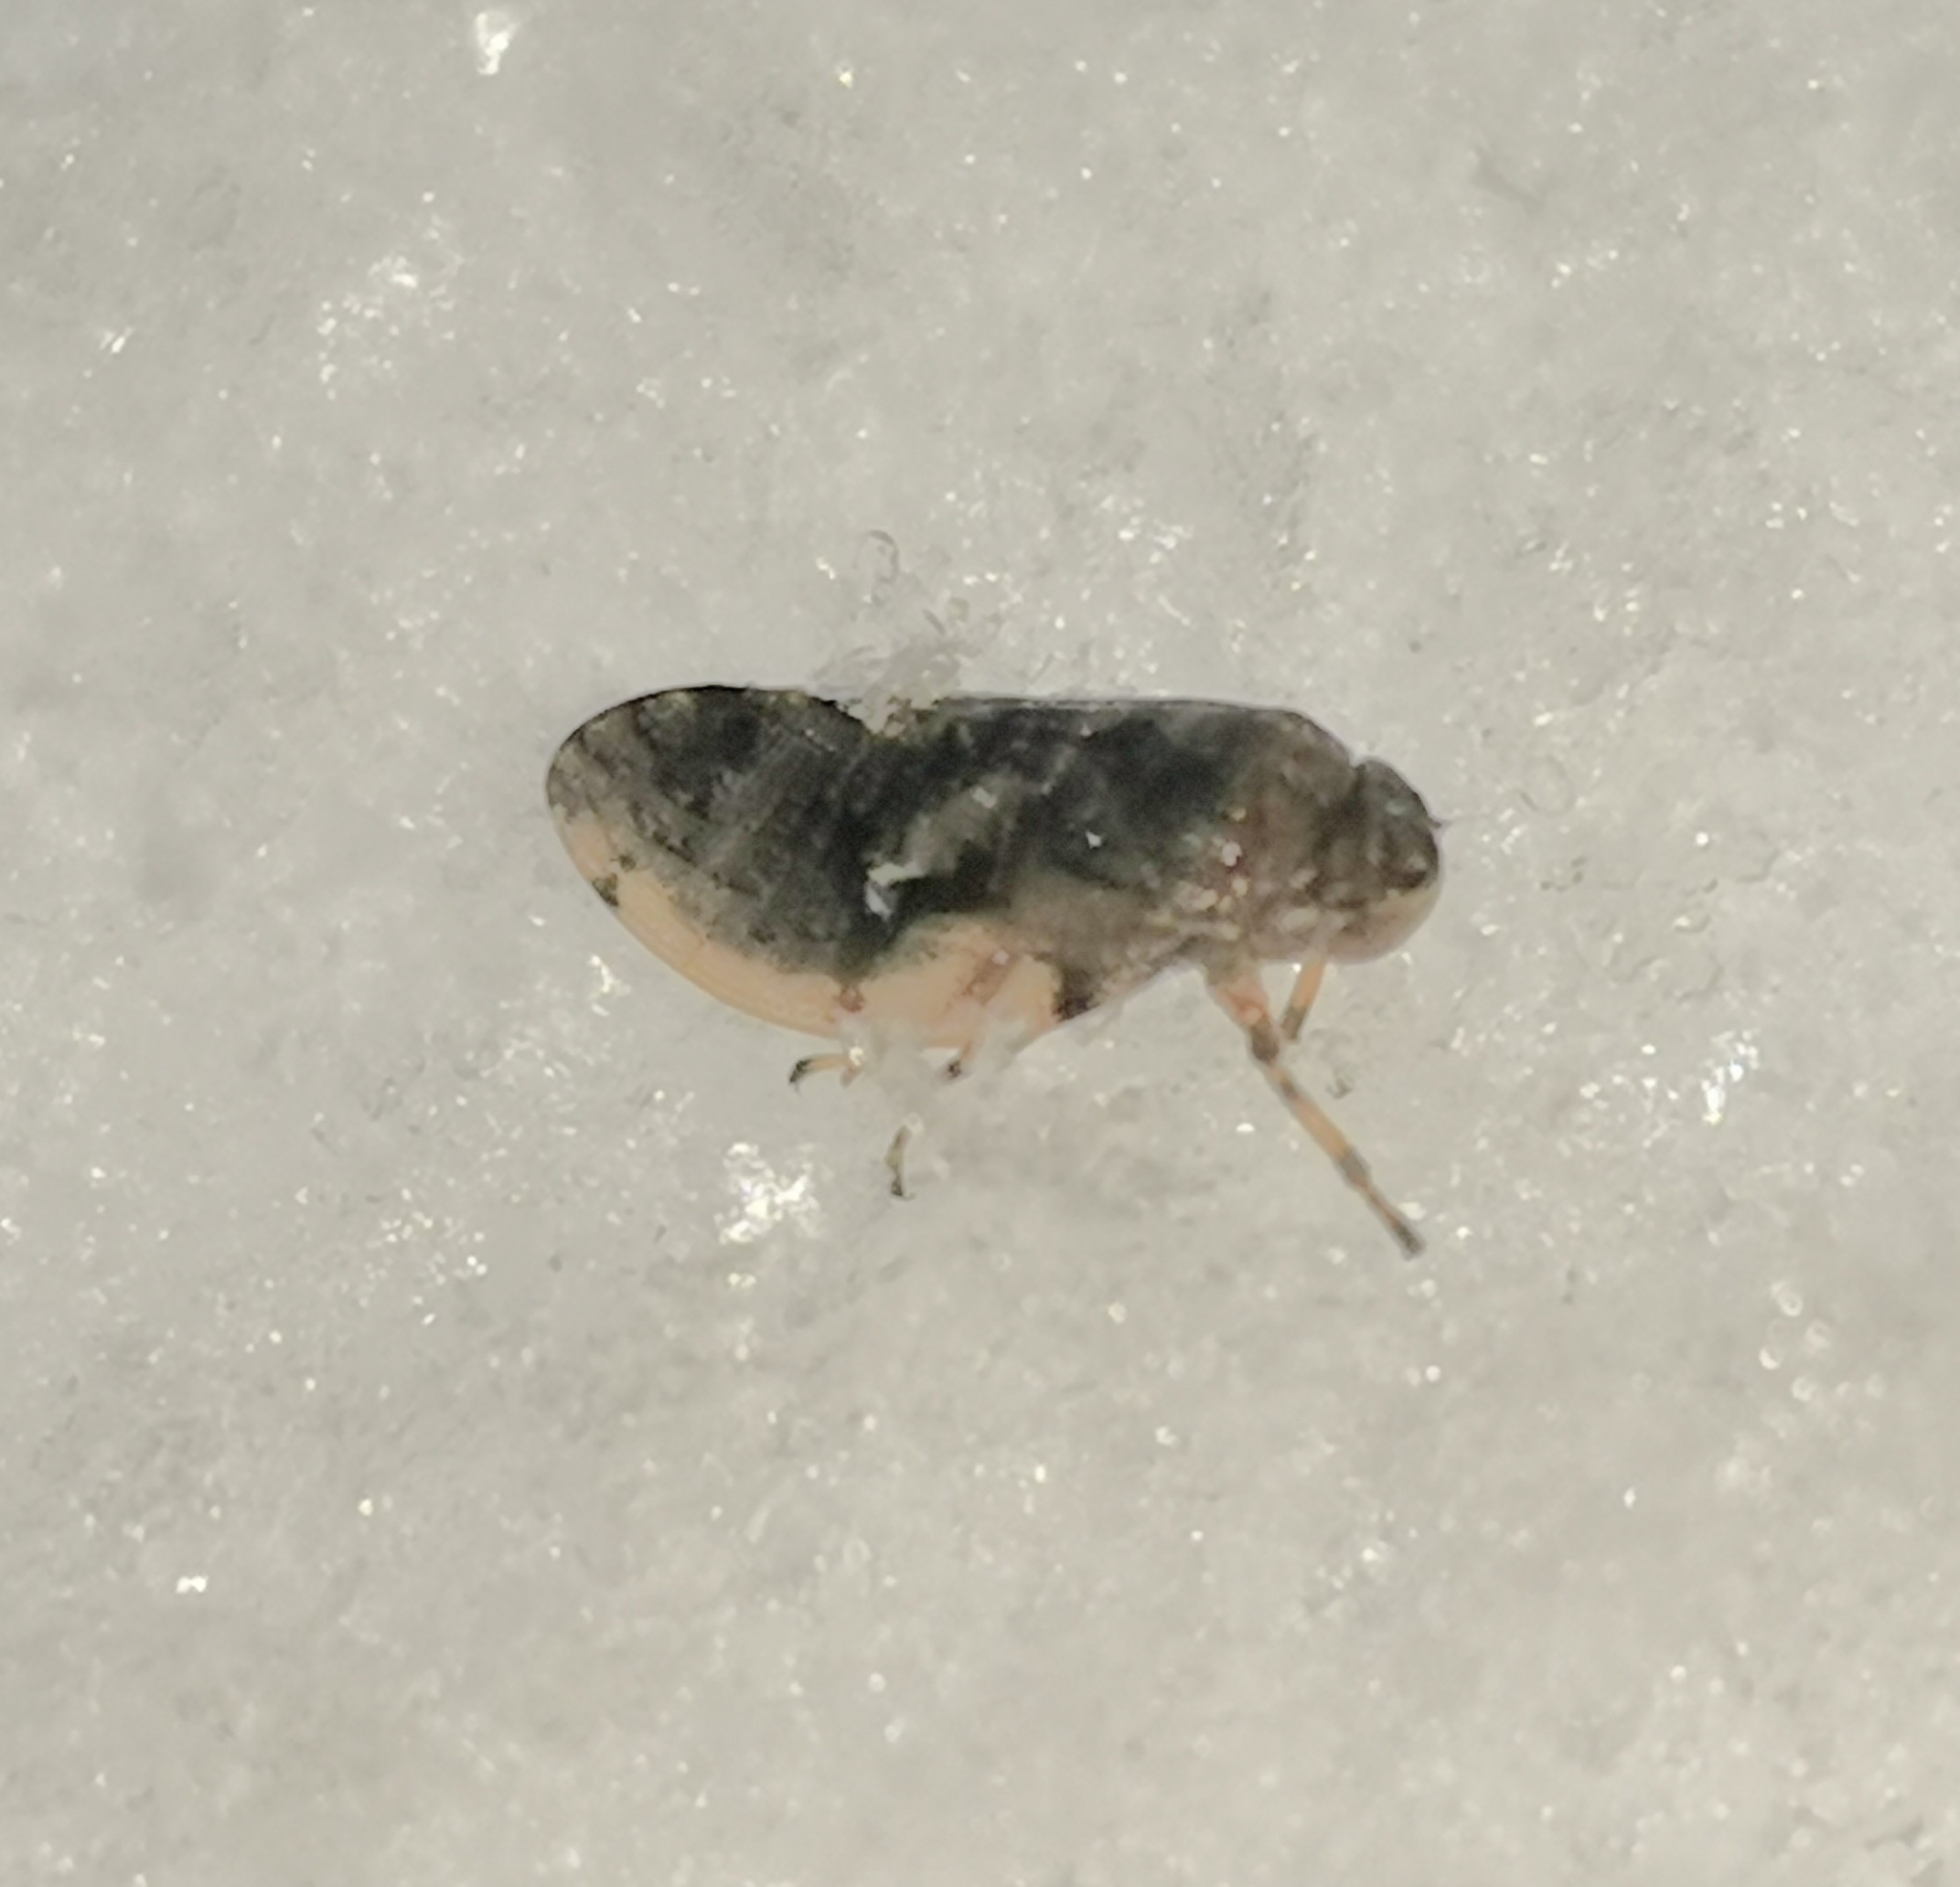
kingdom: Animalia
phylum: Arthropoda
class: Insecta
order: Hemiptera
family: Aphrophoridae
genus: Peuceptyelus
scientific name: Peuceptyelus coriaceus
